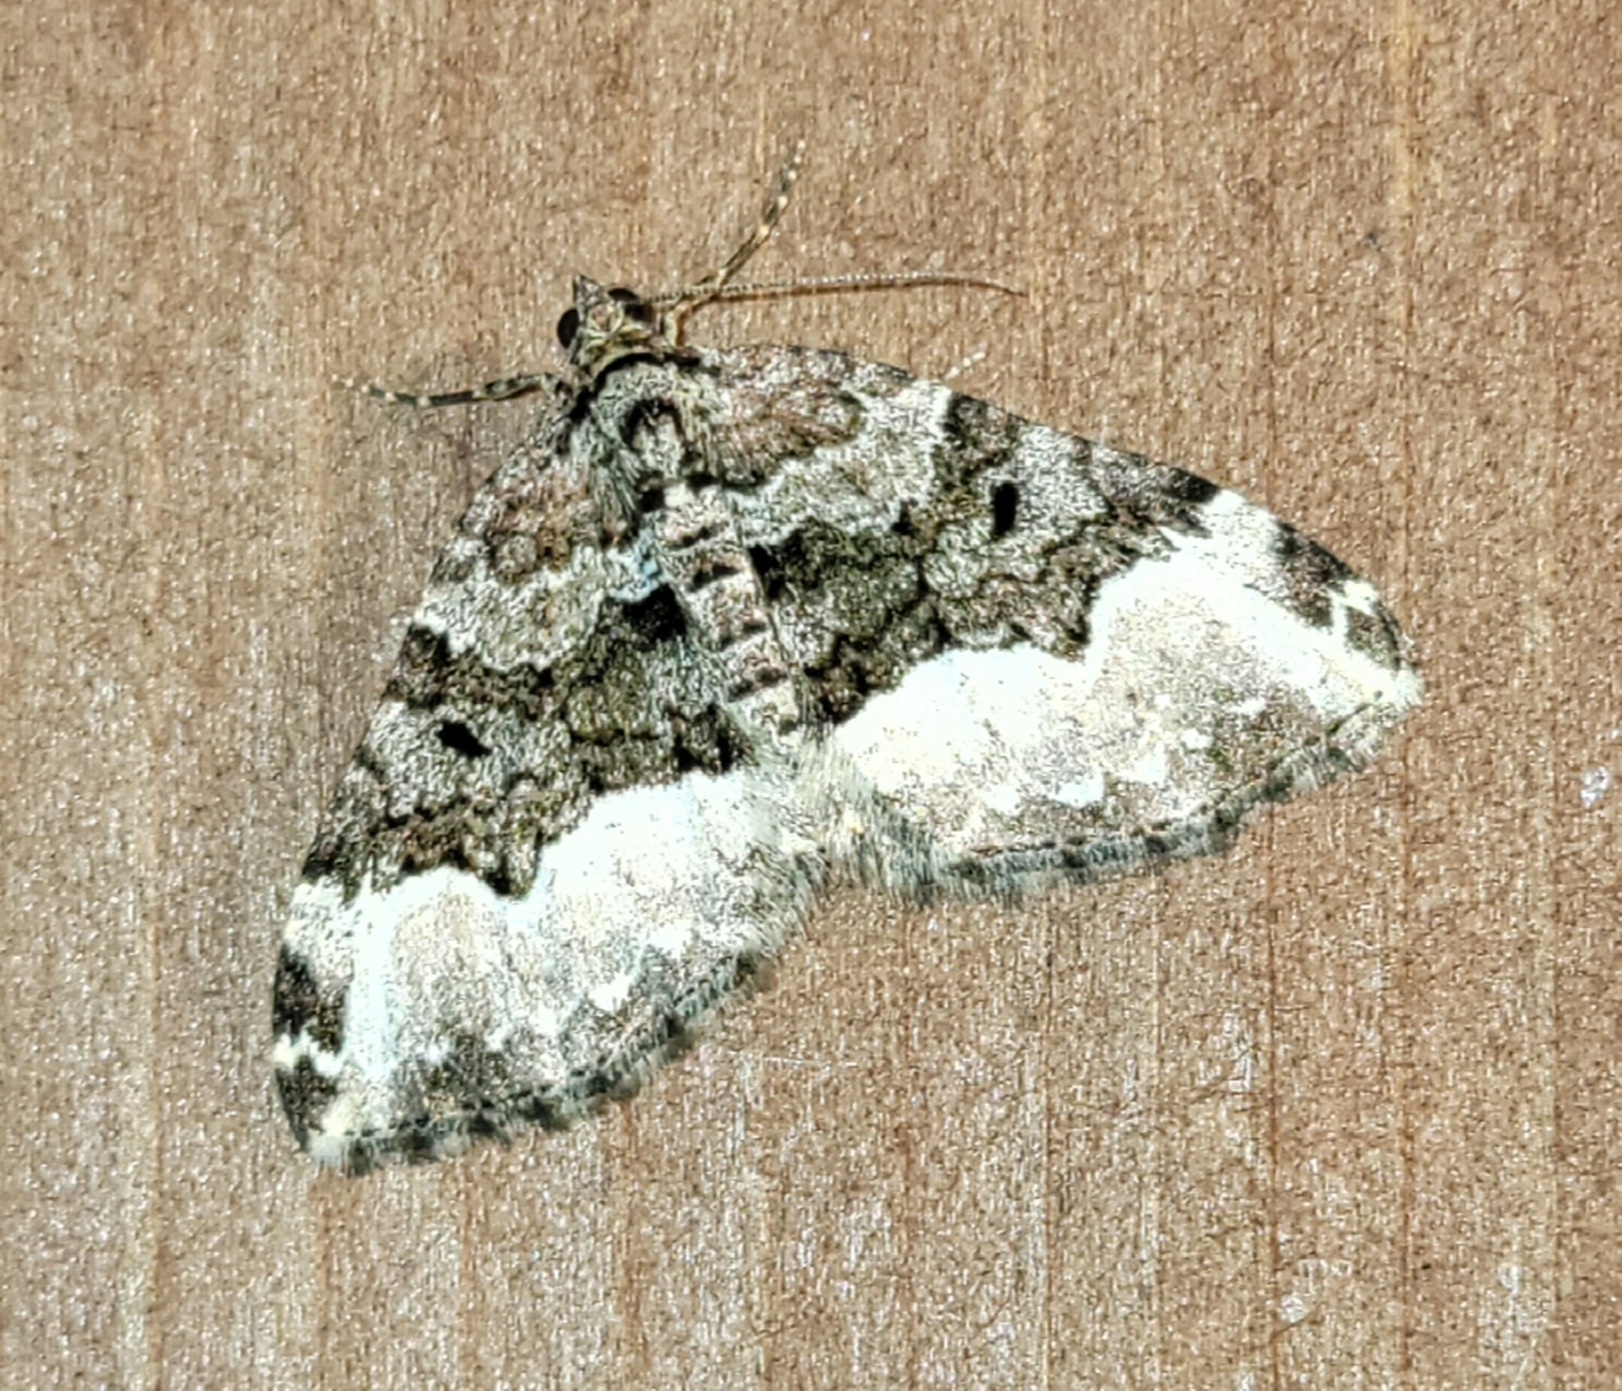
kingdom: Animalia
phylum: Arthropoda
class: Insecta
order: Lepidoptera
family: Geometridae
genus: Euphyia
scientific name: Euphyia intermediata
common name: Sharp-angled carpet
